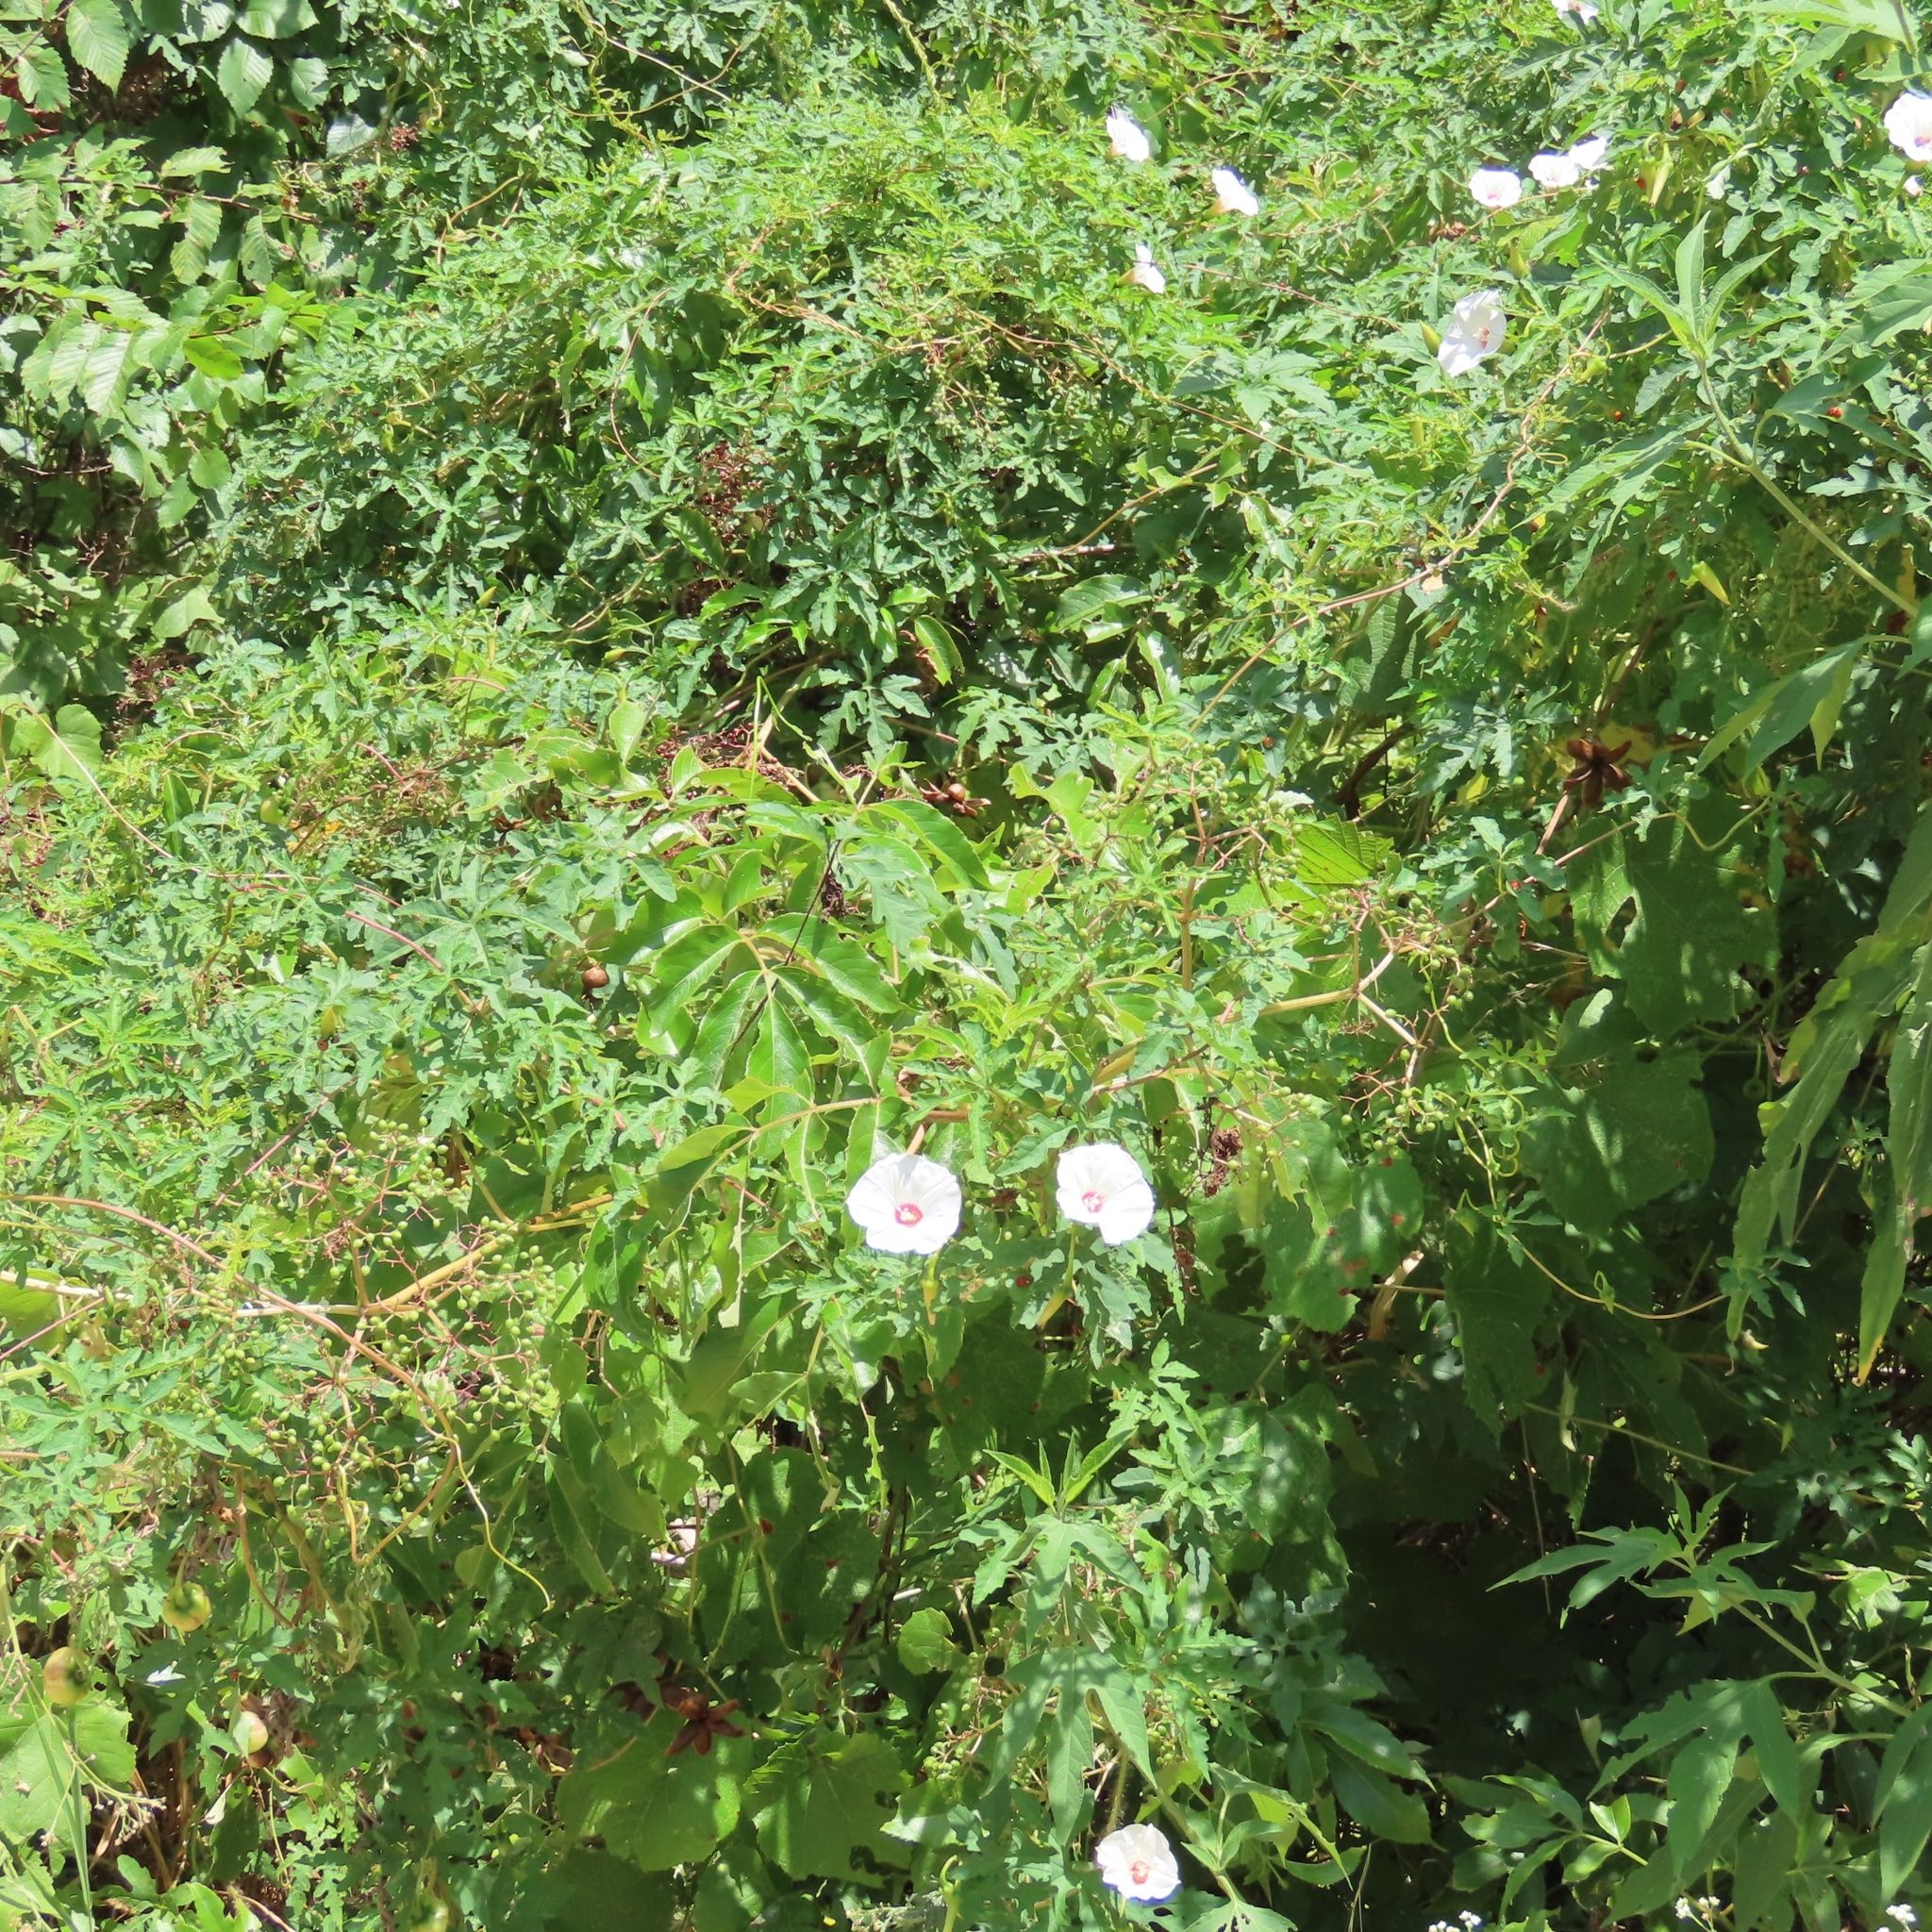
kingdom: Plantae
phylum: Tracheophyta
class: Magnoliopsida
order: Solanales
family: Convolvulaceae
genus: Distimake
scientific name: Distimake dissectus
